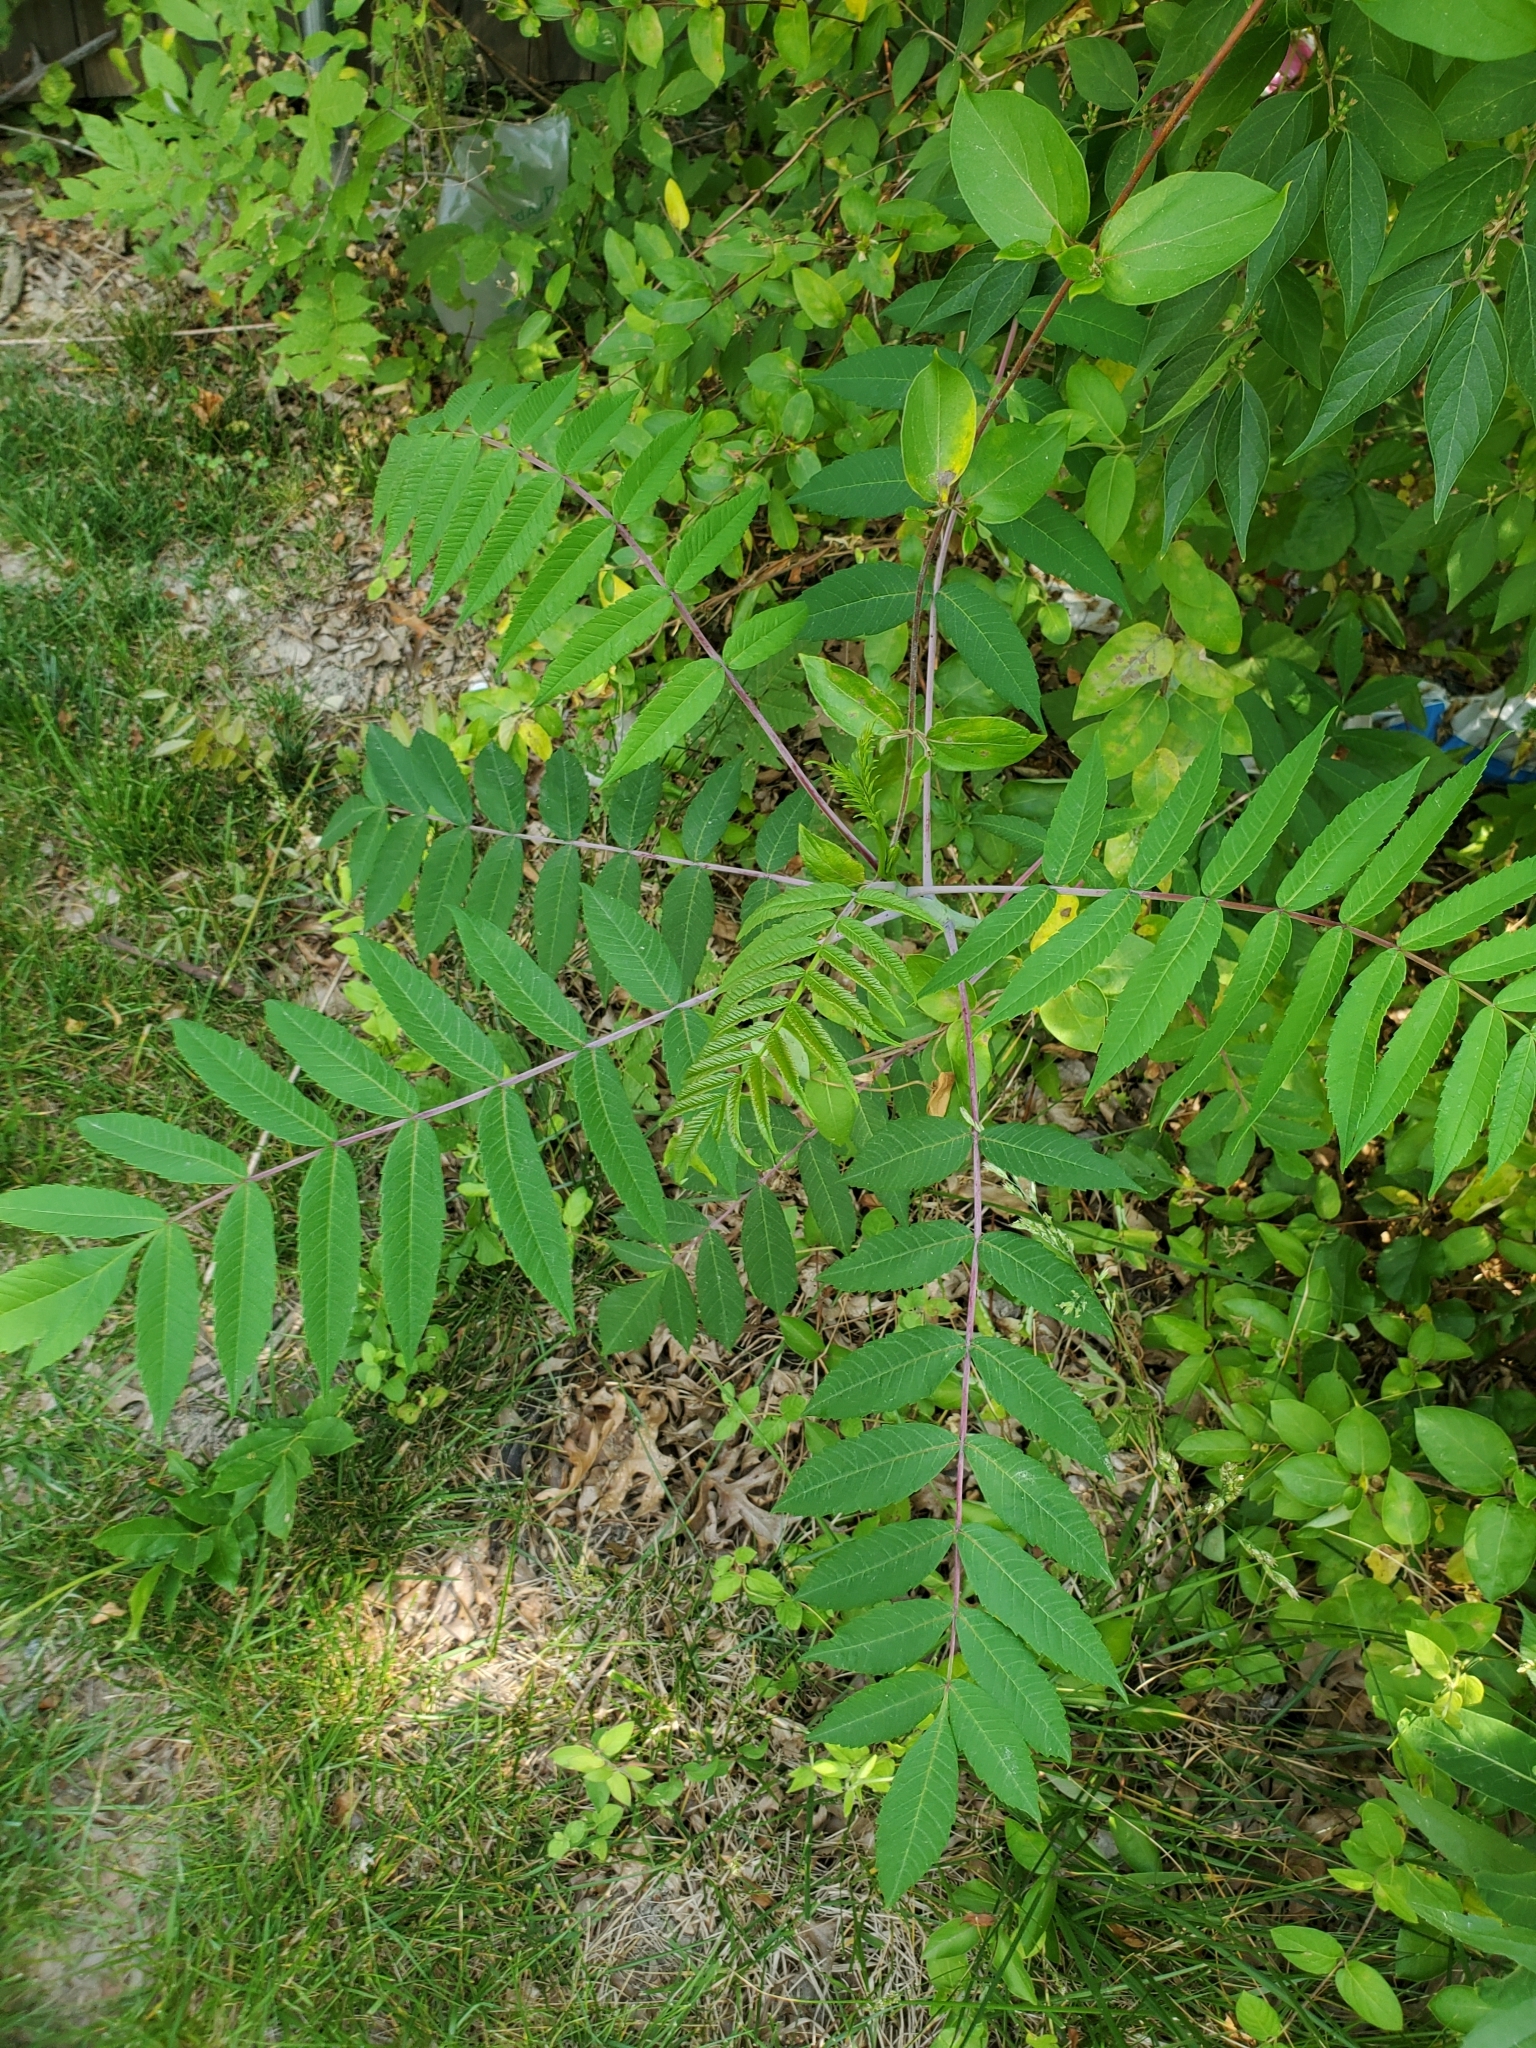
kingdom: Plantae
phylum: Tracheophyta
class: Magnoliopsida
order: Sapindales
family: Anacardiaceae
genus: Rhus
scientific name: Rhus glabra
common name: Scarlet sumac
